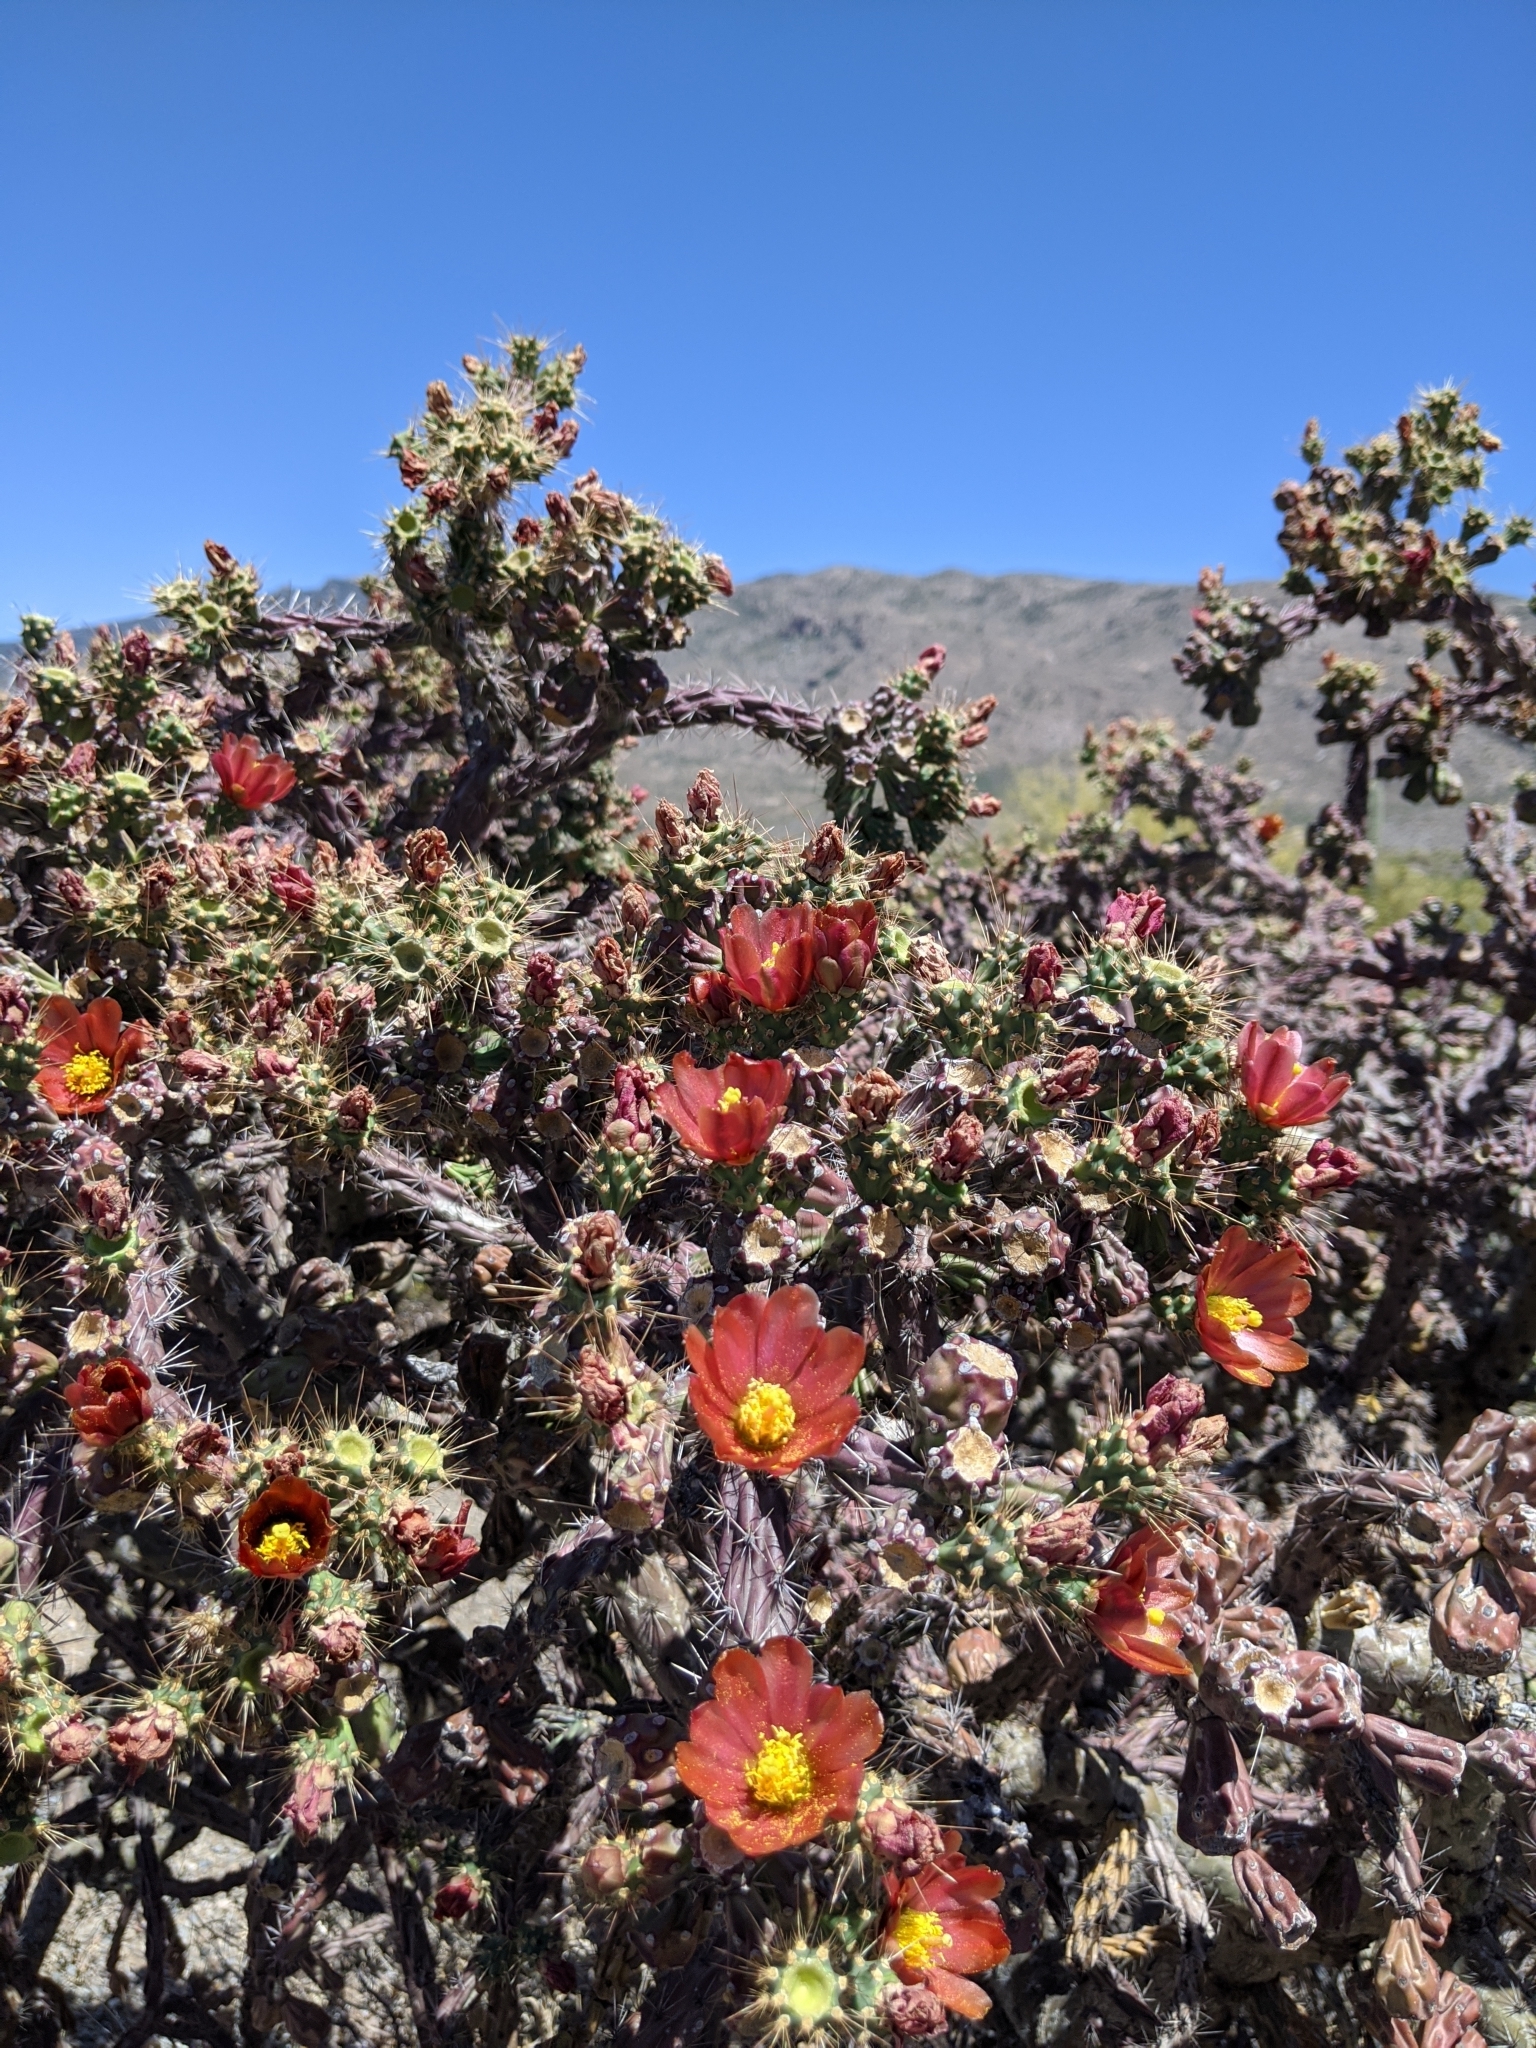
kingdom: Plantae
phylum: Tracheophyta
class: Magnoliopsida
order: Caryophyllales
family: Cactaceae
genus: Cylindropuntia
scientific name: Cylindropuntia thurberi
